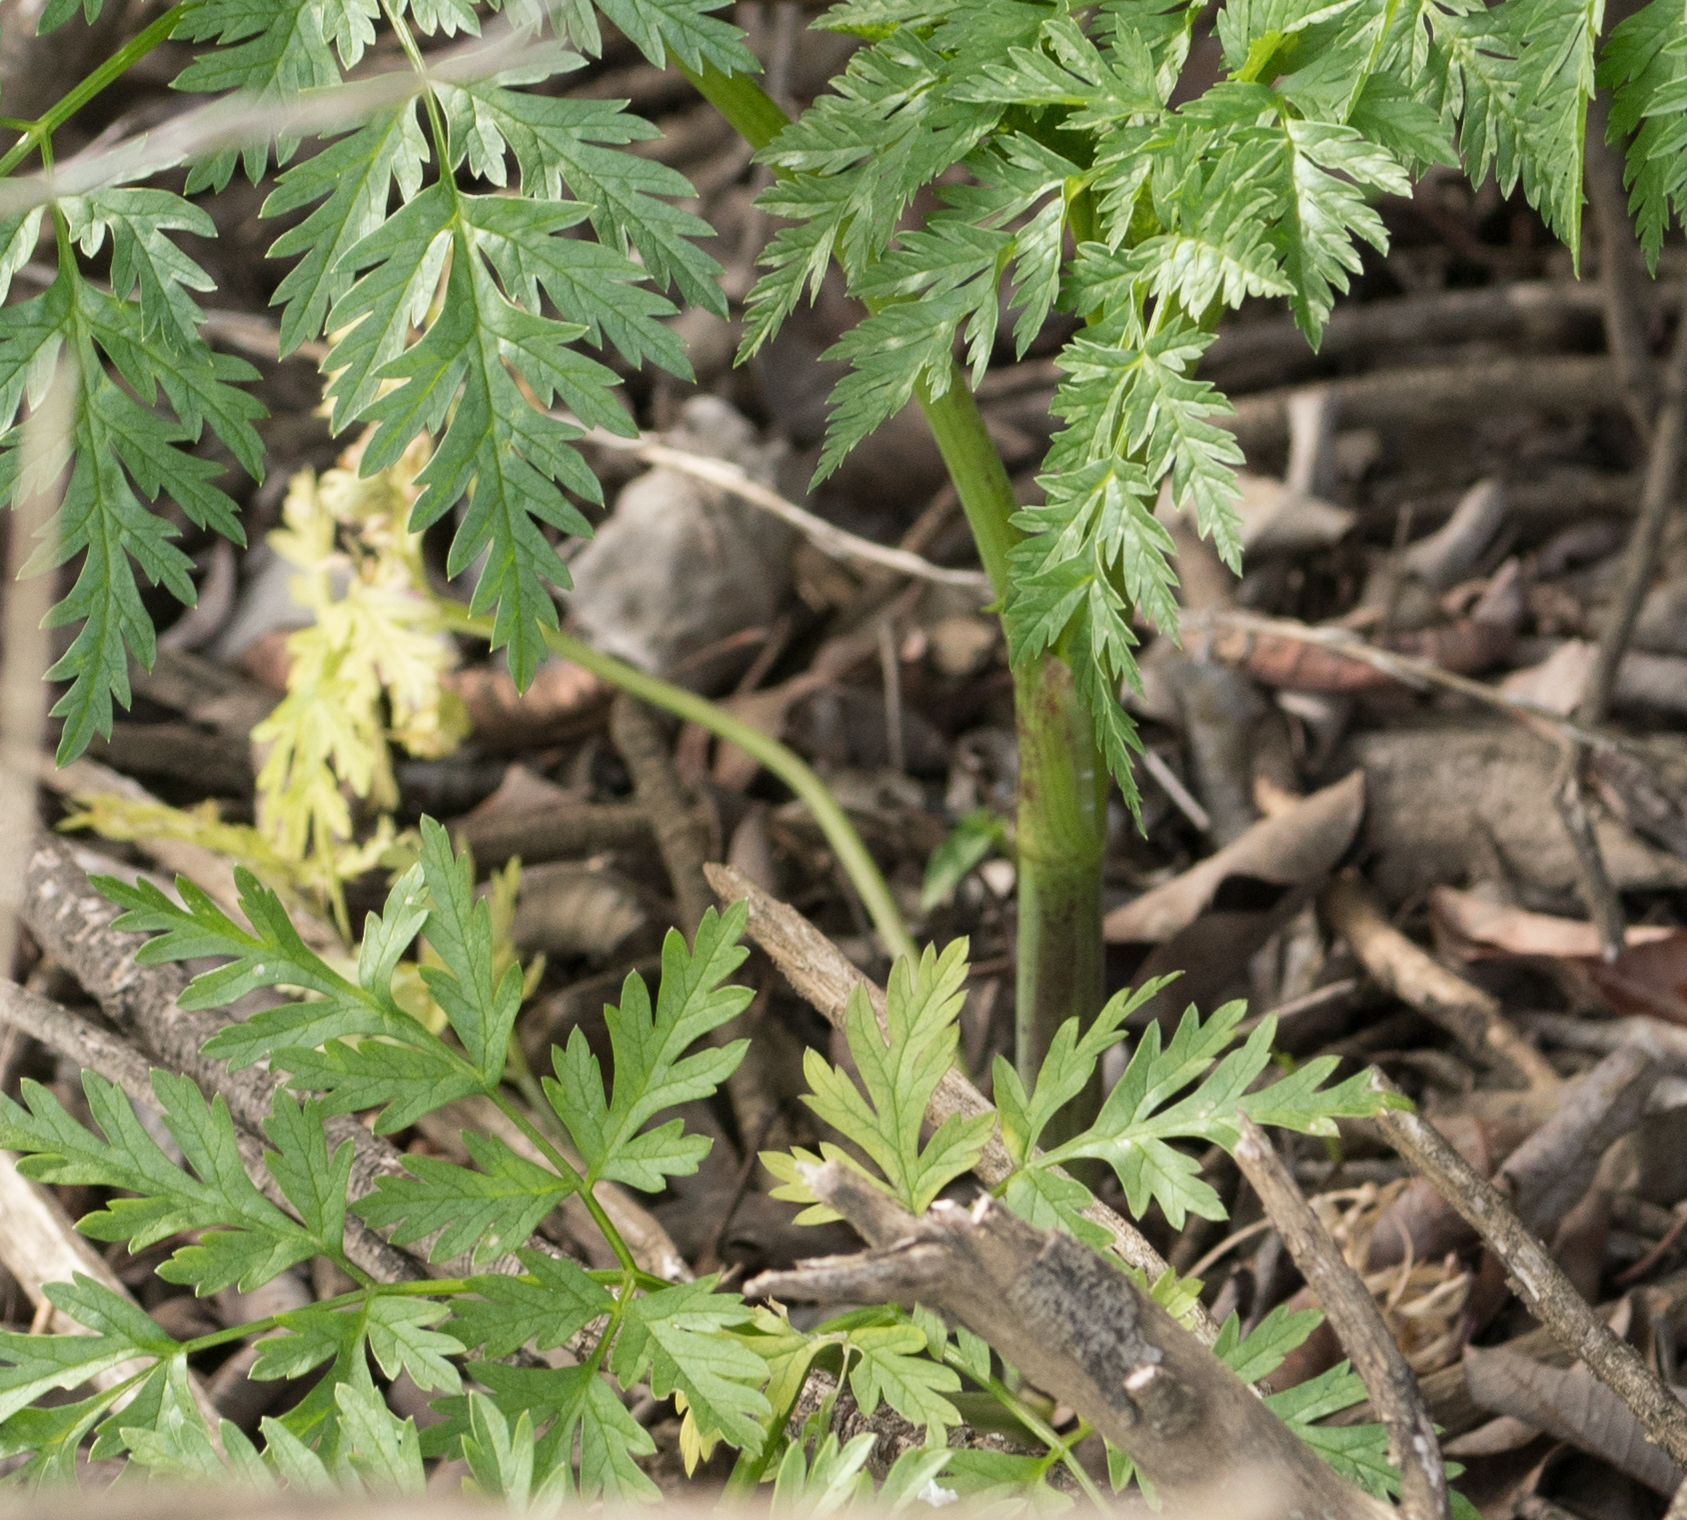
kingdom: Plantae
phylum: Tracheophyta
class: Magnoliopsida
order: Apiales
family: Apiaceae
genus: Conium
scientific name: Conium maculatum
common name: Hemlock
